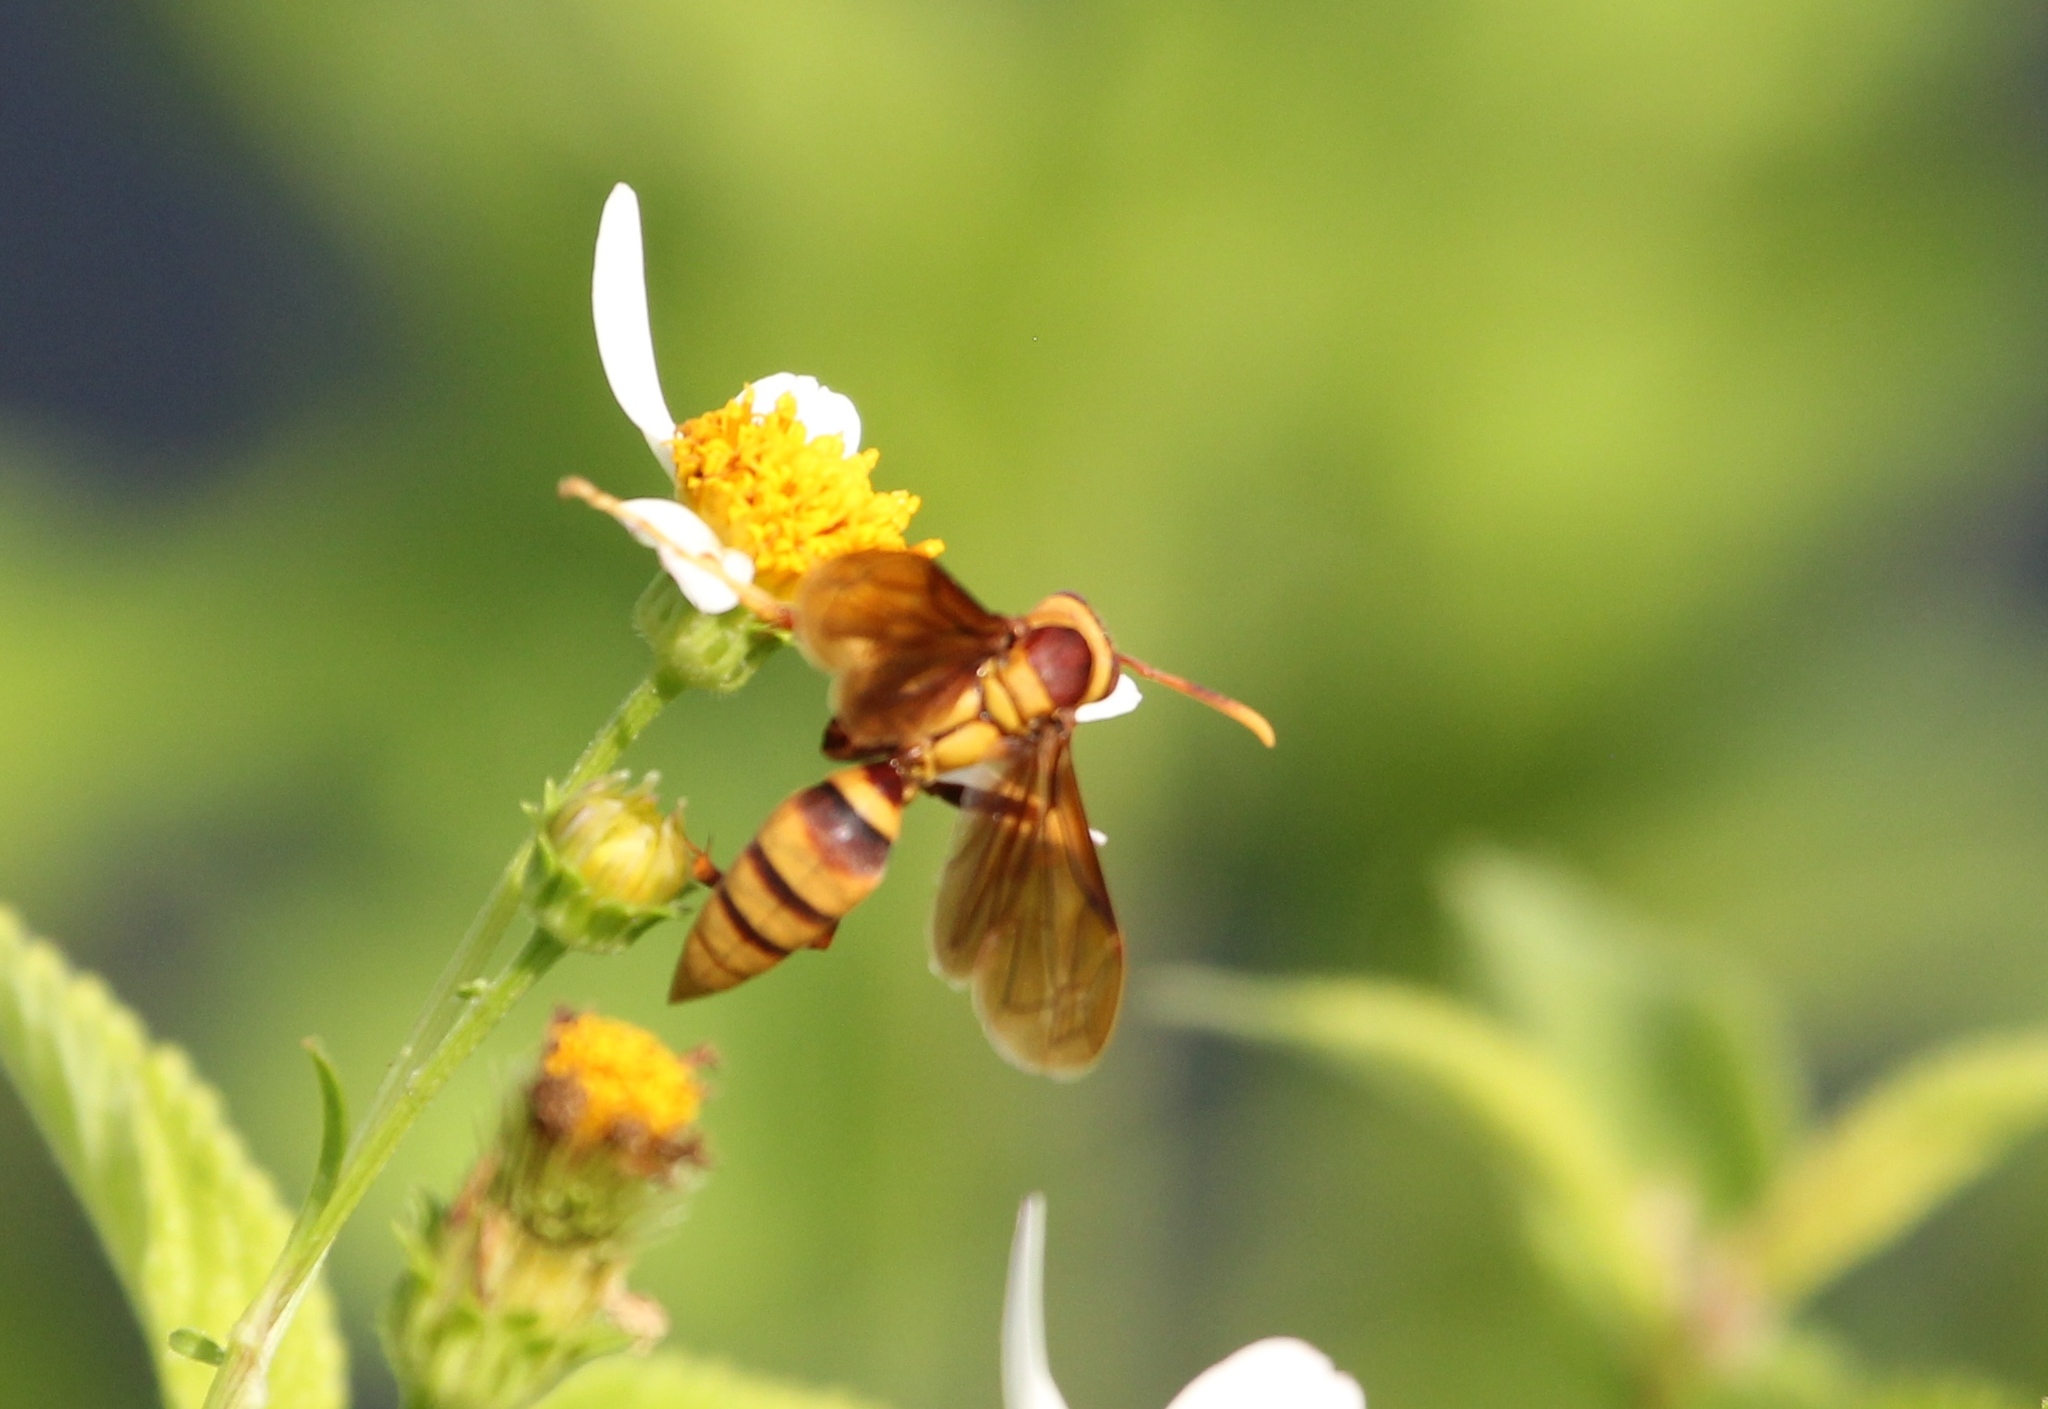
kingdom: Animalia
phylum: Arthropoda
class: Insecta
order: Hymenoptera
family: Eumenidae
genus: Polistes
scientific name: Polistes major
